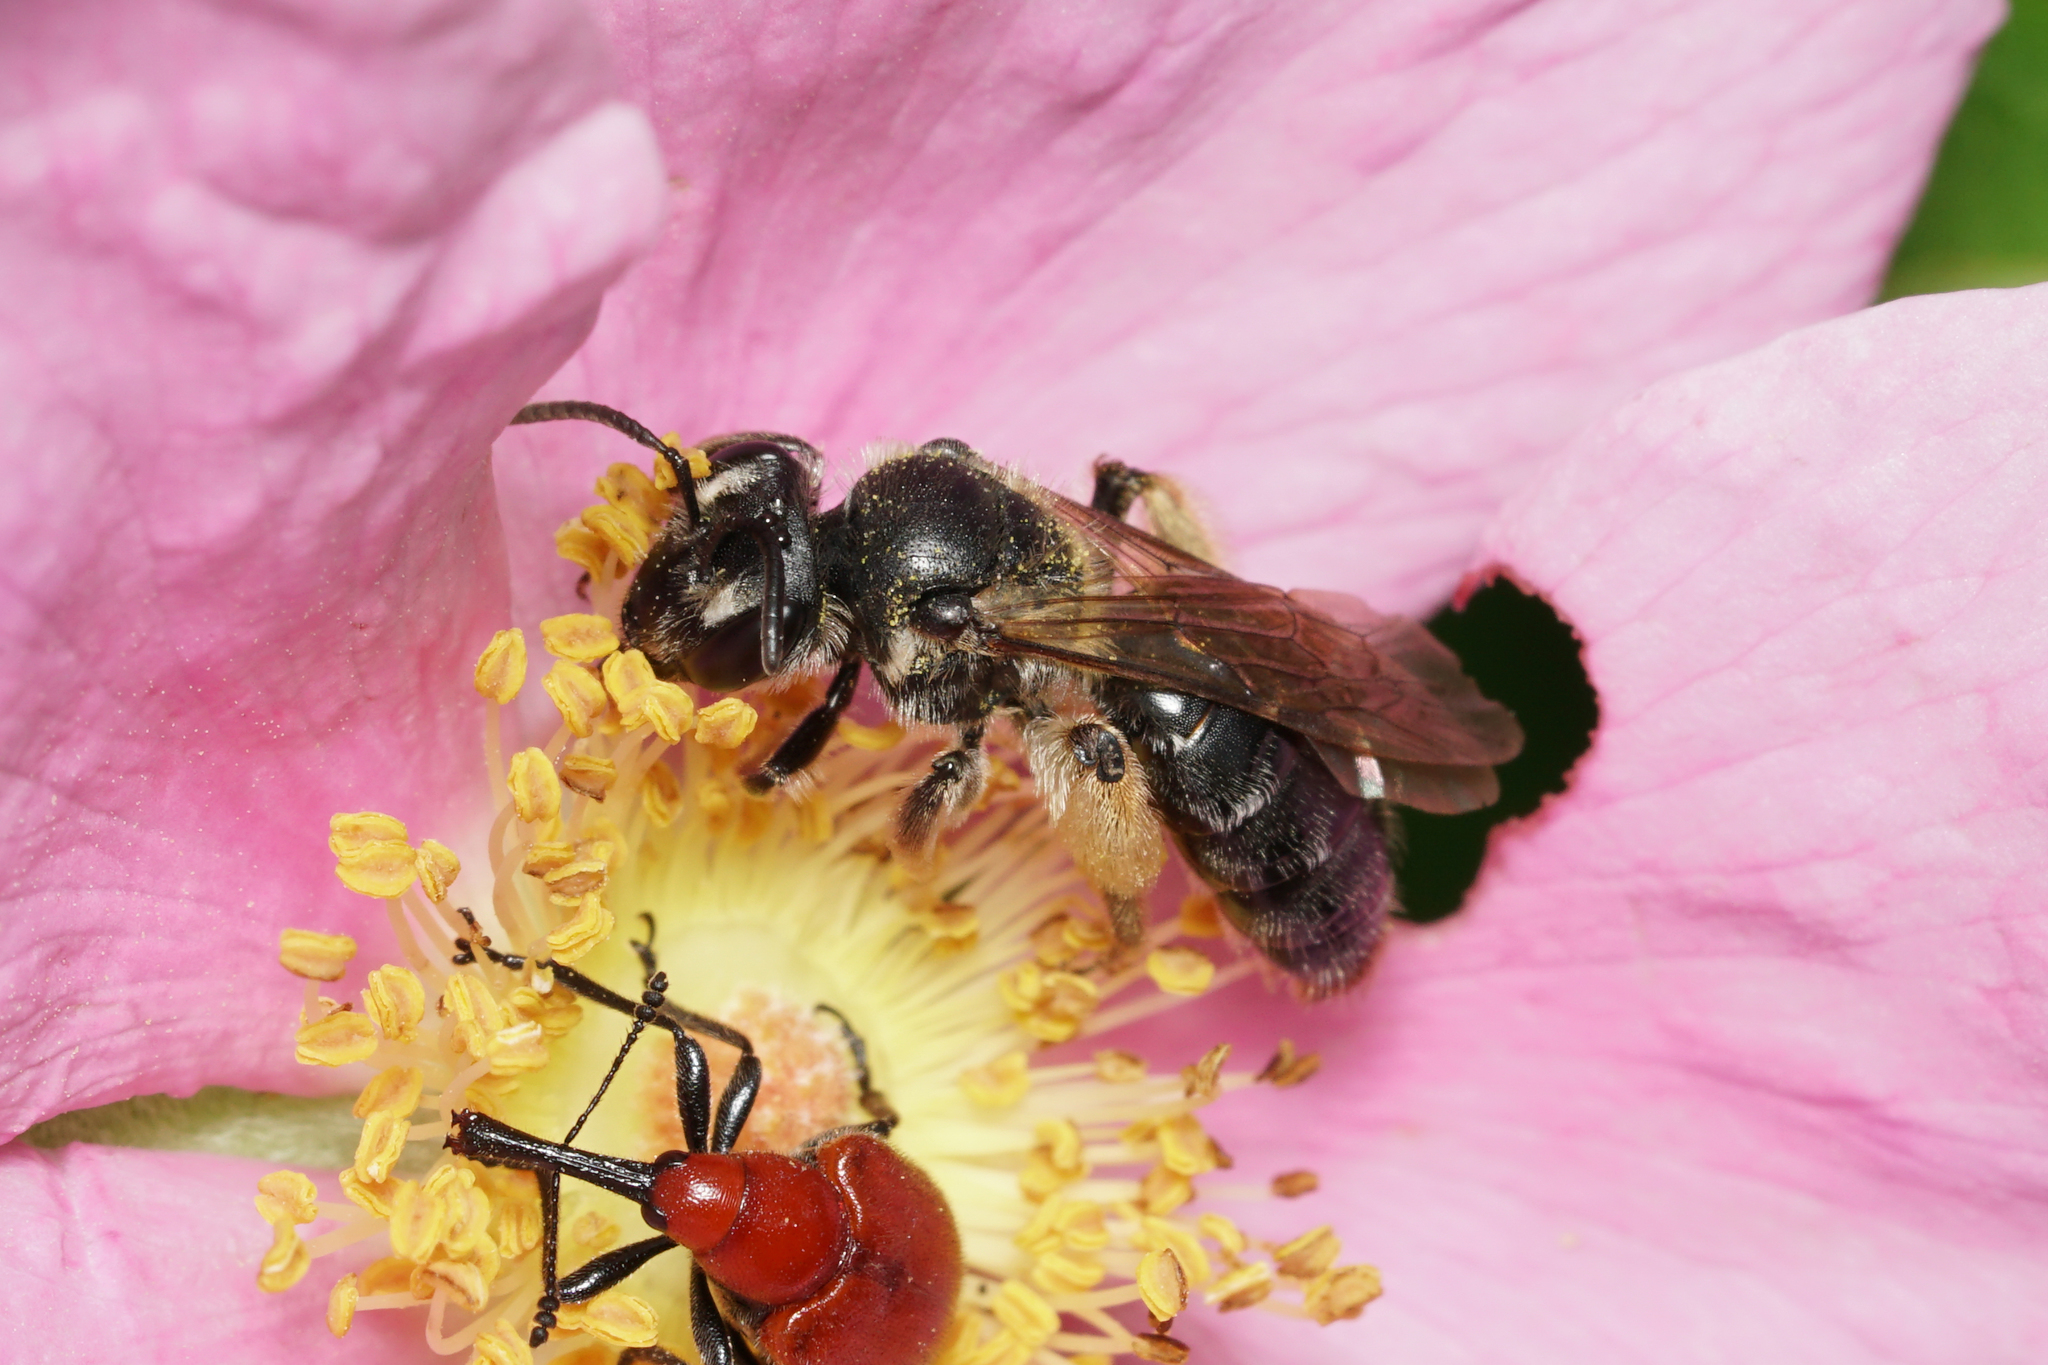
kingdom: Animalia
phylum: Arthropoda
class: Insecta
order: Hymenoptera
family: Andrenidae
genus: Andrena
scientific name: Andrena
